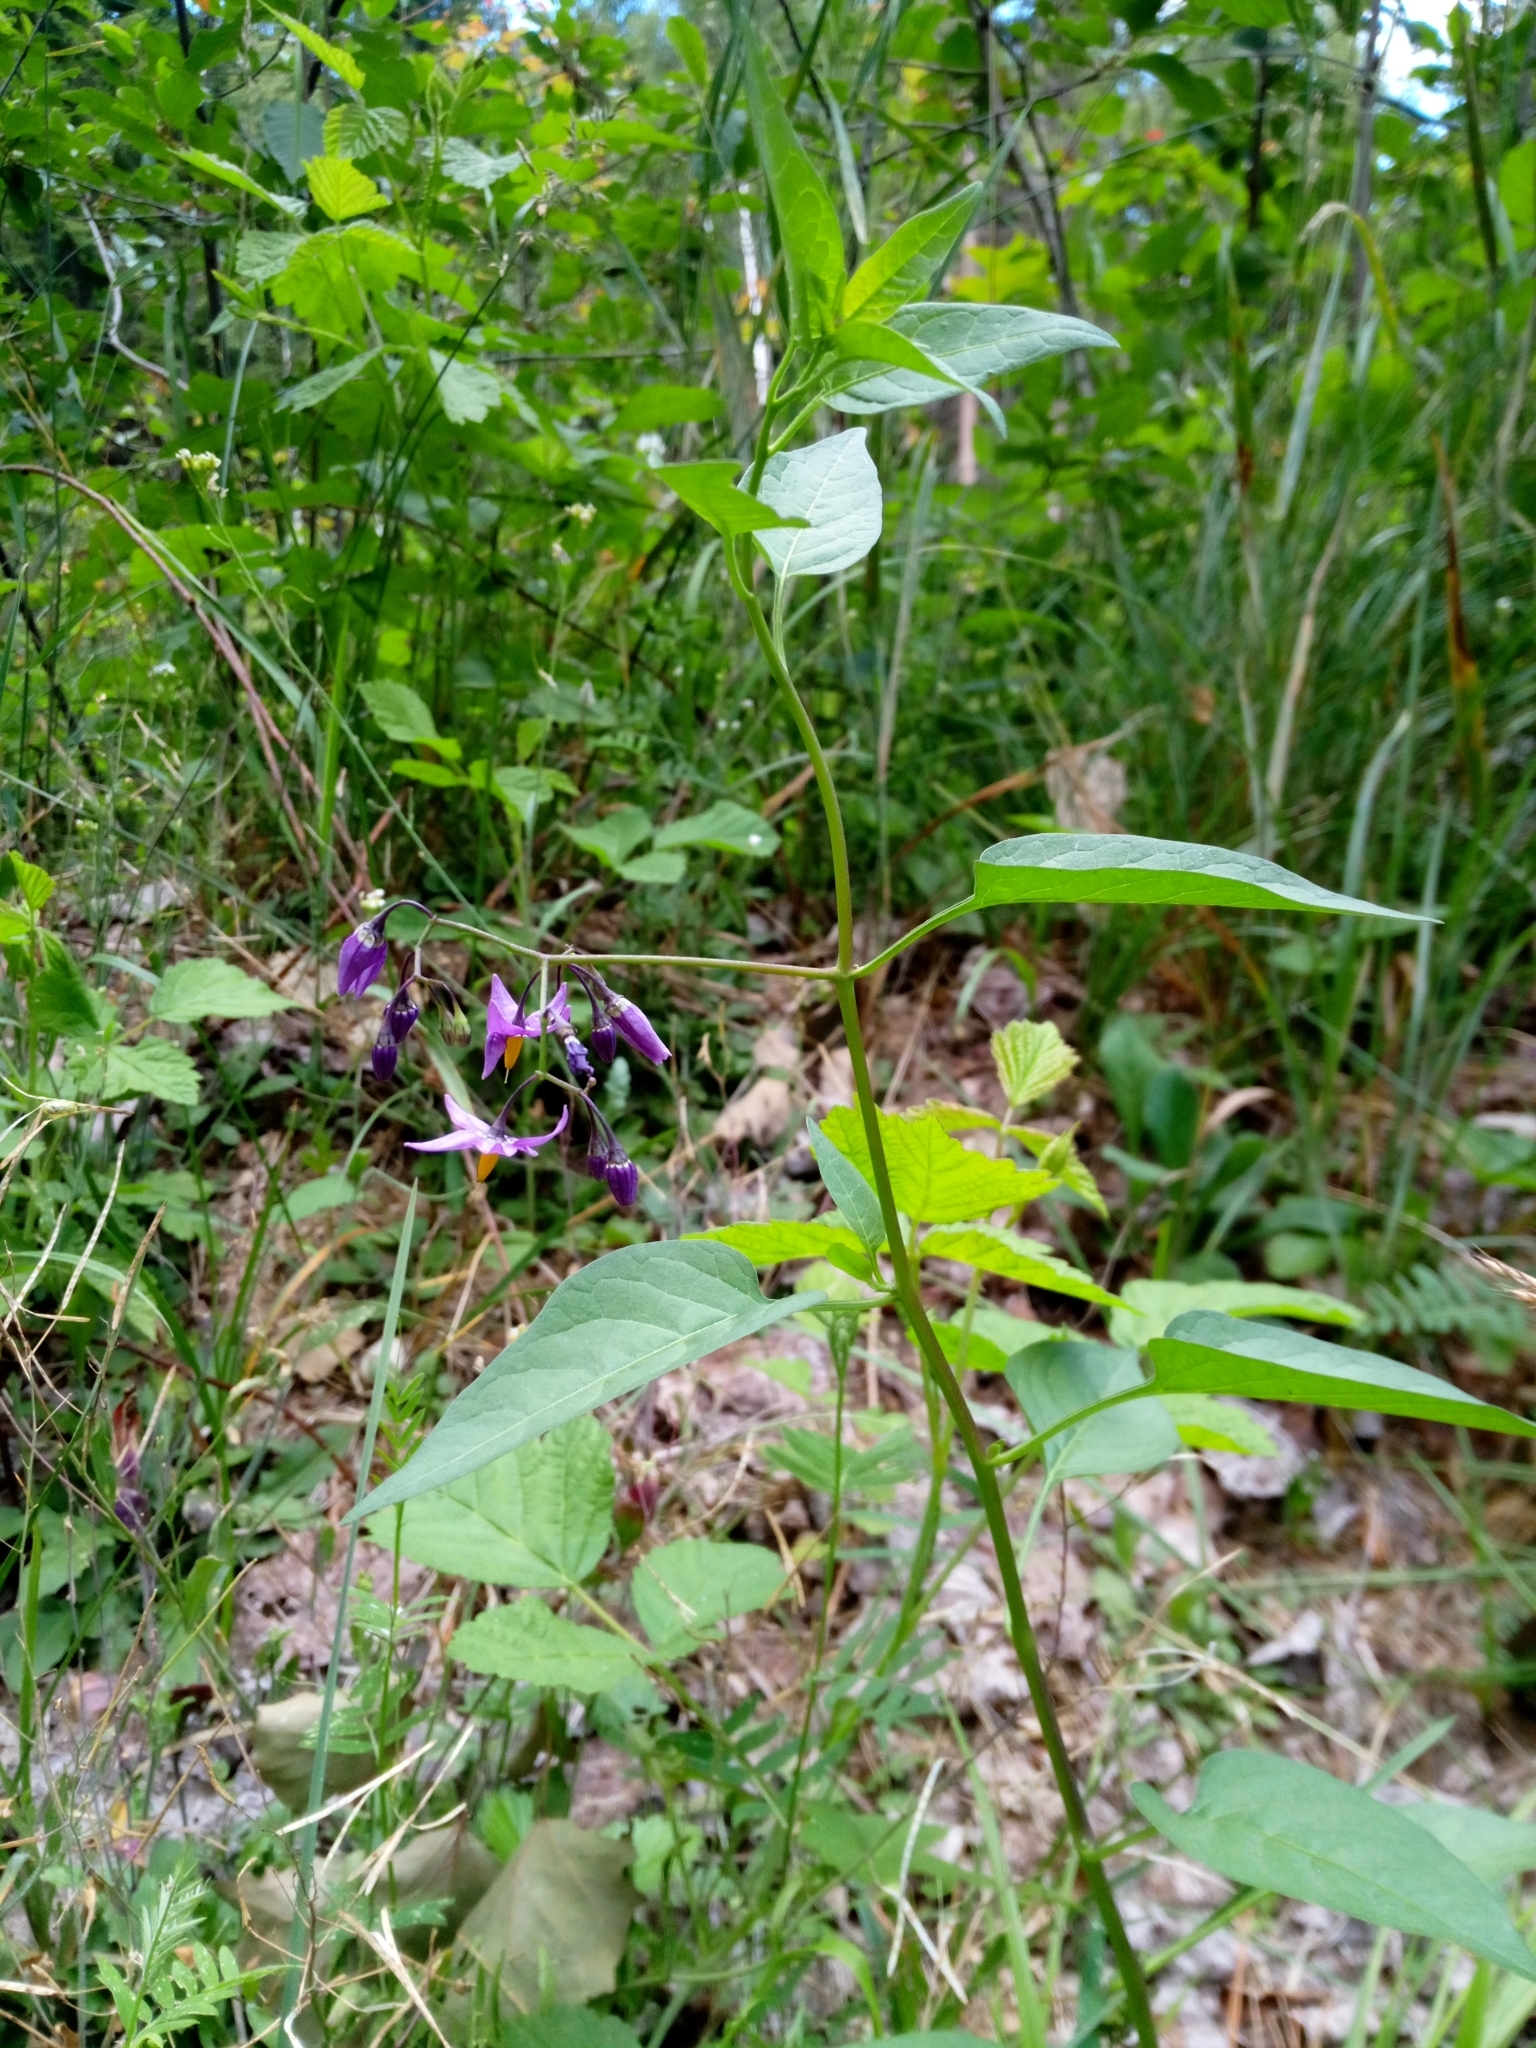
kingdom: Plantae
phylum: Tracheophyta
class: Magnoliopsida
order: Solanales
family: Solanaceae
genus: Solanum
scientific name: Solanum dulcamara
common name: Climbing nightshade
